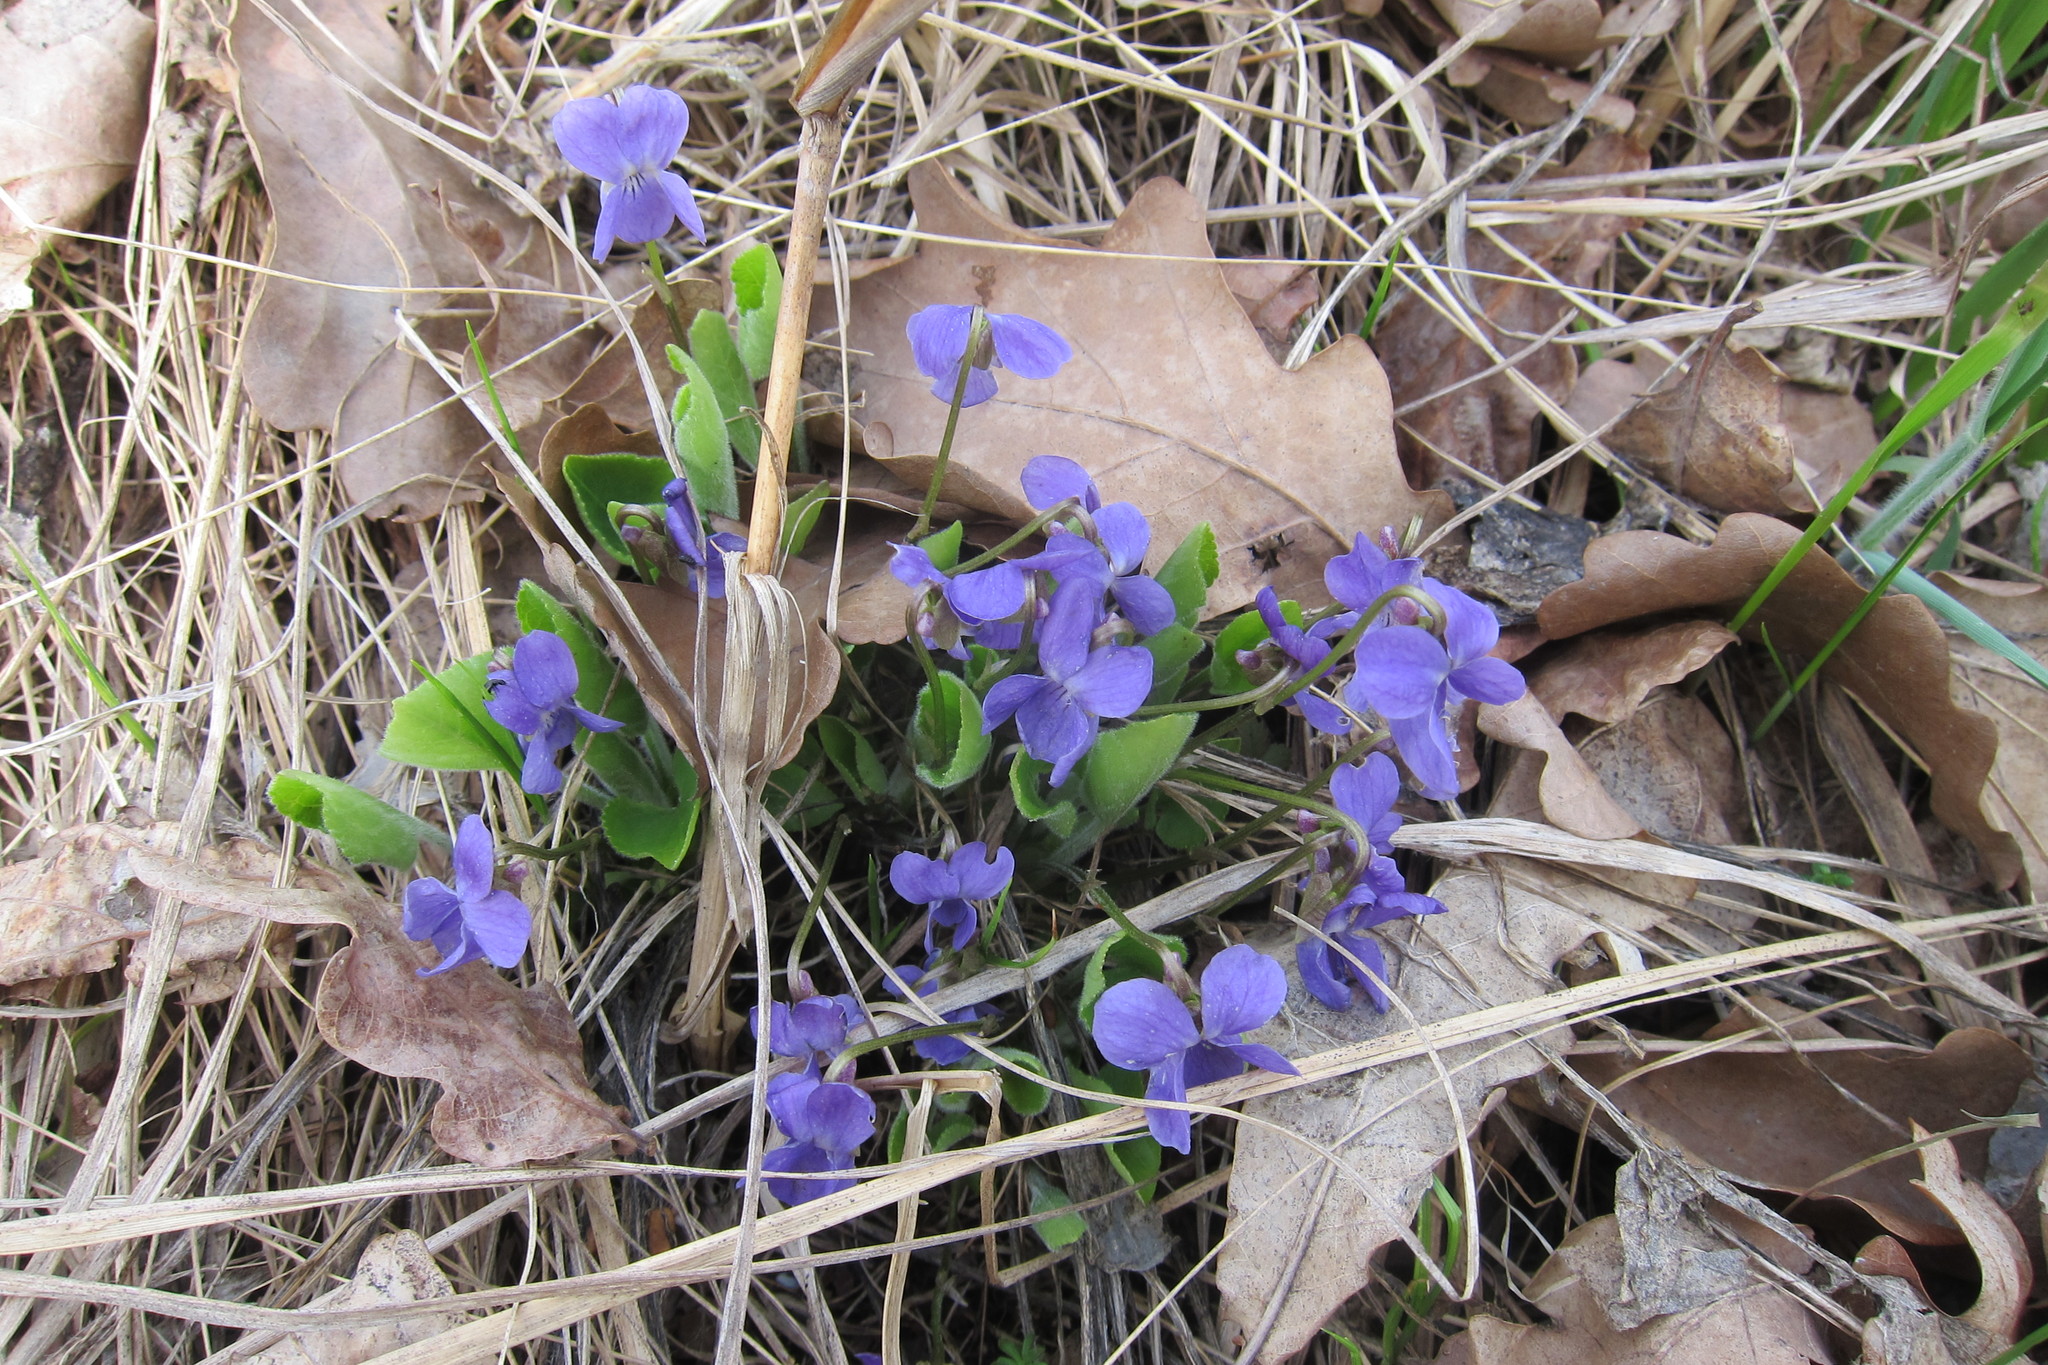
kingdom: Plantae
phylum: Tracheophyta
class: Magnoliopsida
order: Malpighiales
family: Violaceae
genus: Viola
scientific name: Viola hirta
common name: Hairy violet
